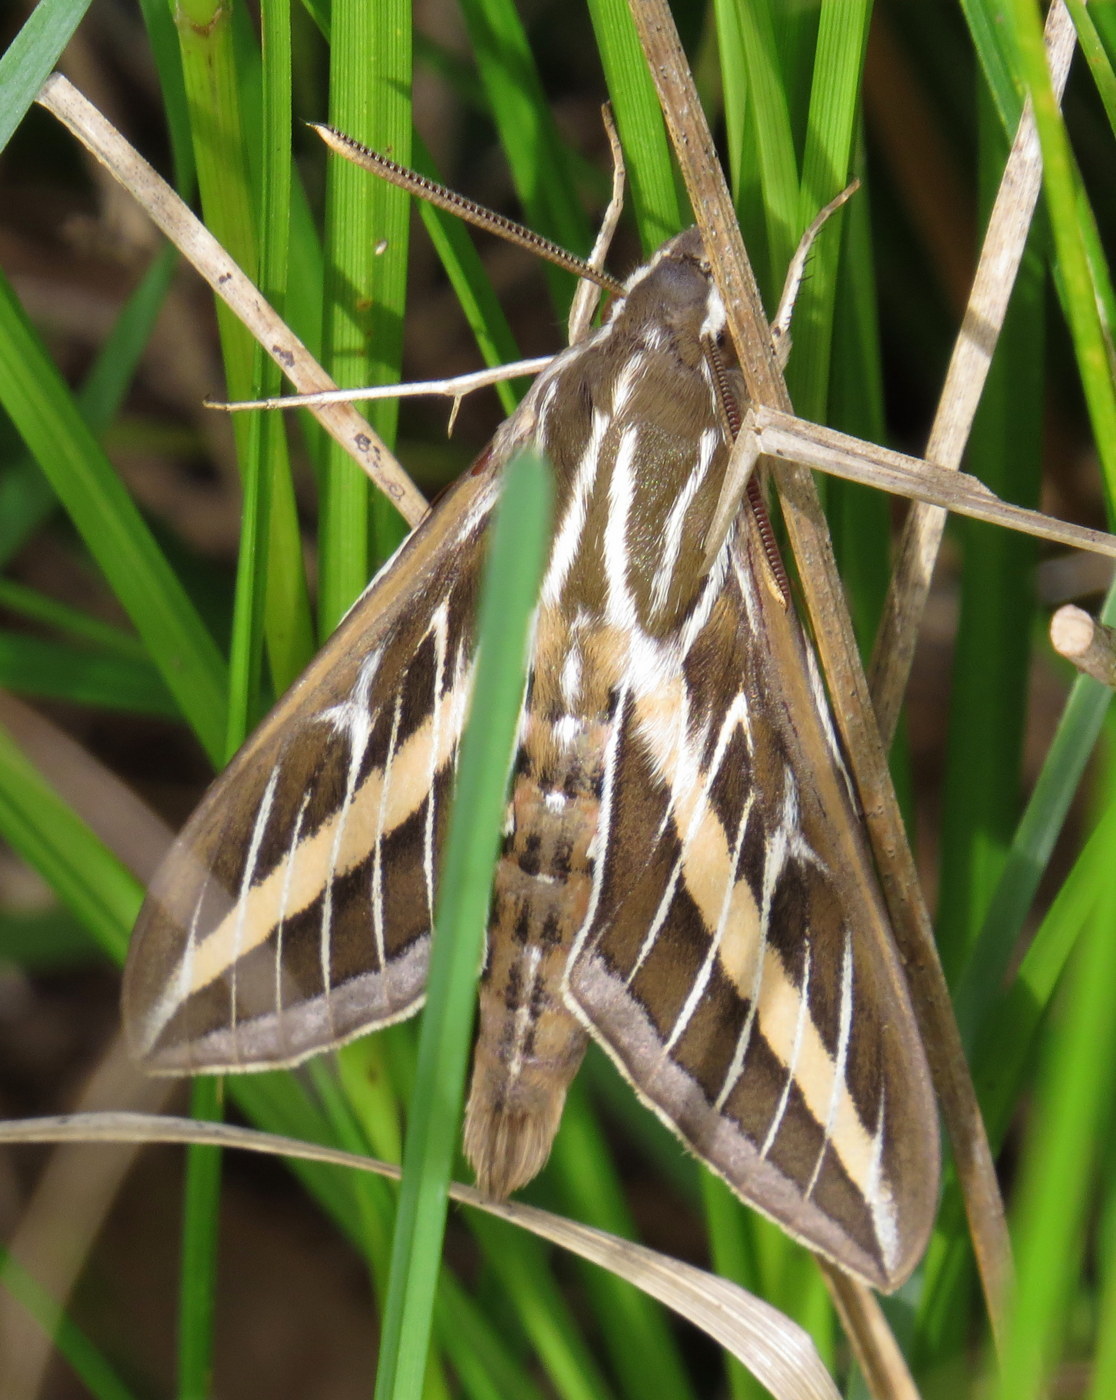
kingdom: Animalia
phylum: Arthropoda
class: Insecta
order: Lepidoptera
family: Sphingidae
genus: Hyles
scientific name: Hyles lineata
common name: White-lined sphinx
